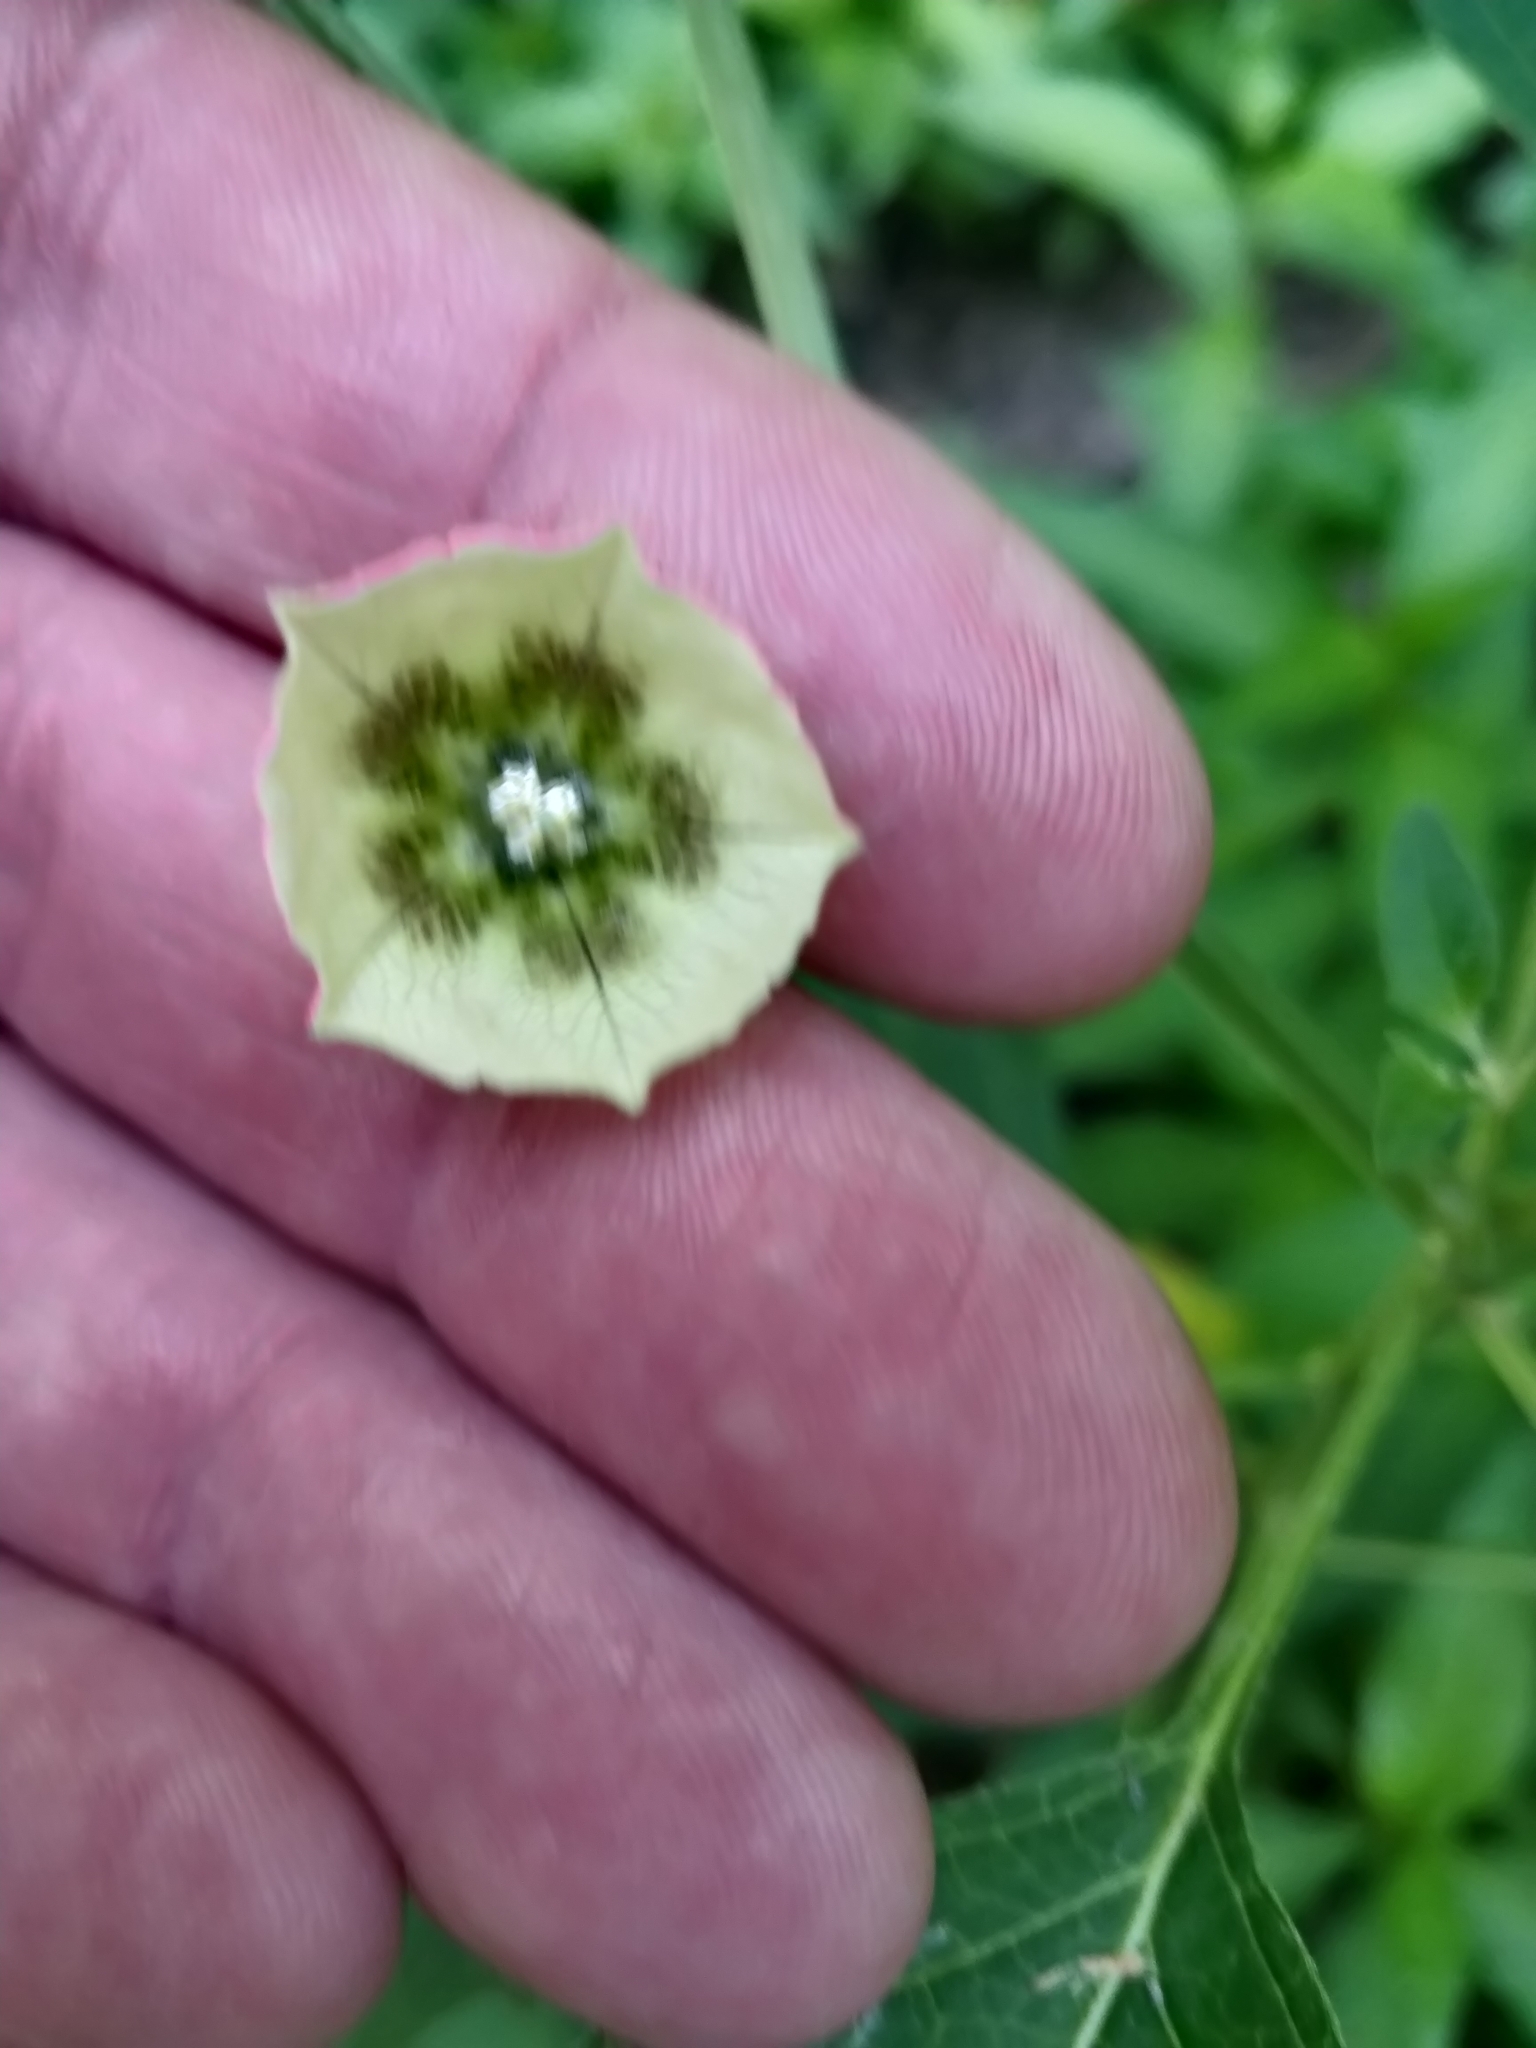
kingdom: Plantae
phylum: Tracheophyta
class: Magnoliopsida
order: Solanales
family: Solanaceae
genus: Physalis
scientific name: Physalis longifolia
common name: Common ground-cherry
